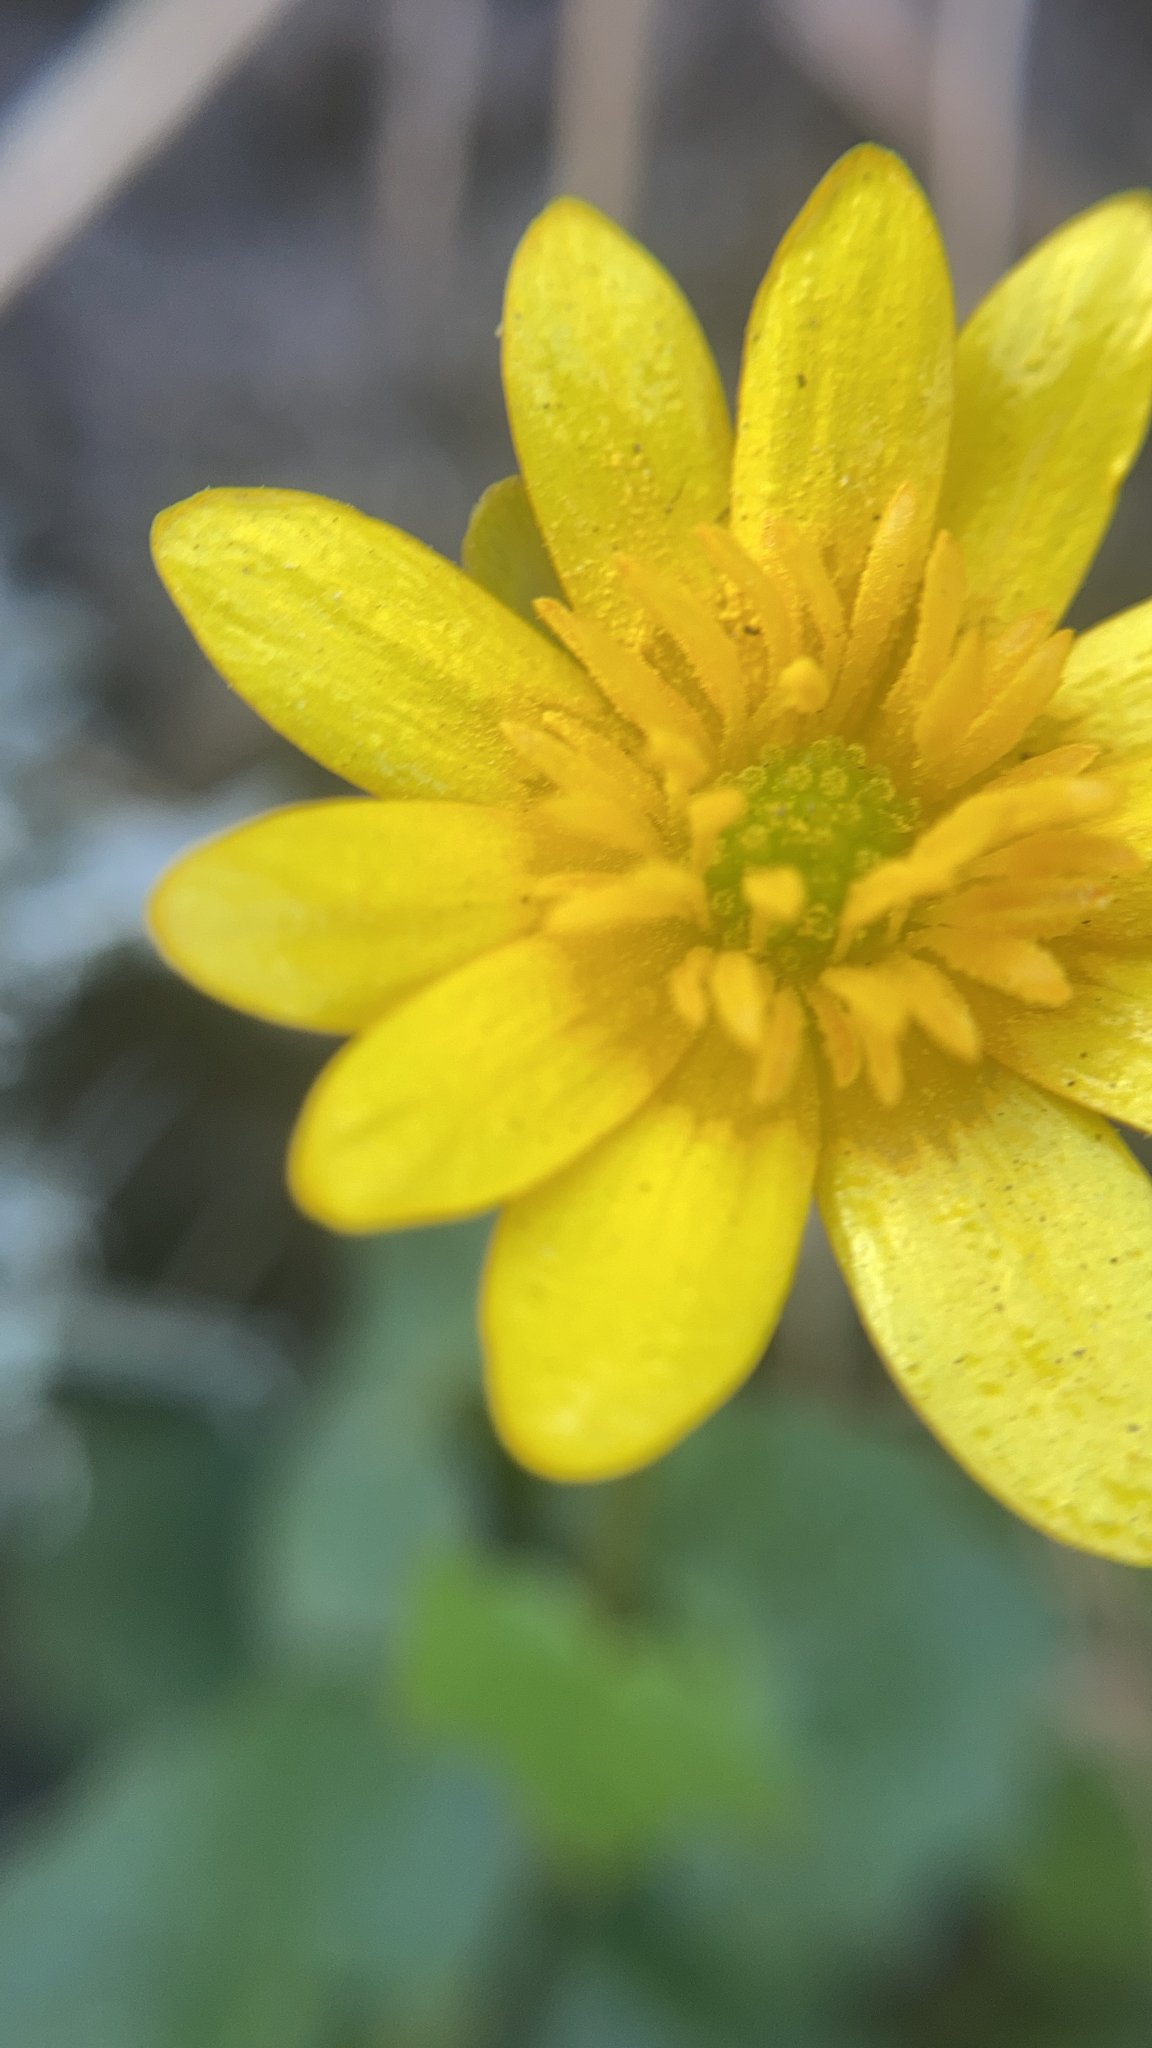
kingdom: Plantae
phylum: Tracheophyta
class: Magnoliopsida
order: Ranunculales
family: Ranunculaceae
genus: Ficaria
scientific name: Ficaria verna
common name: Lesser celandine
